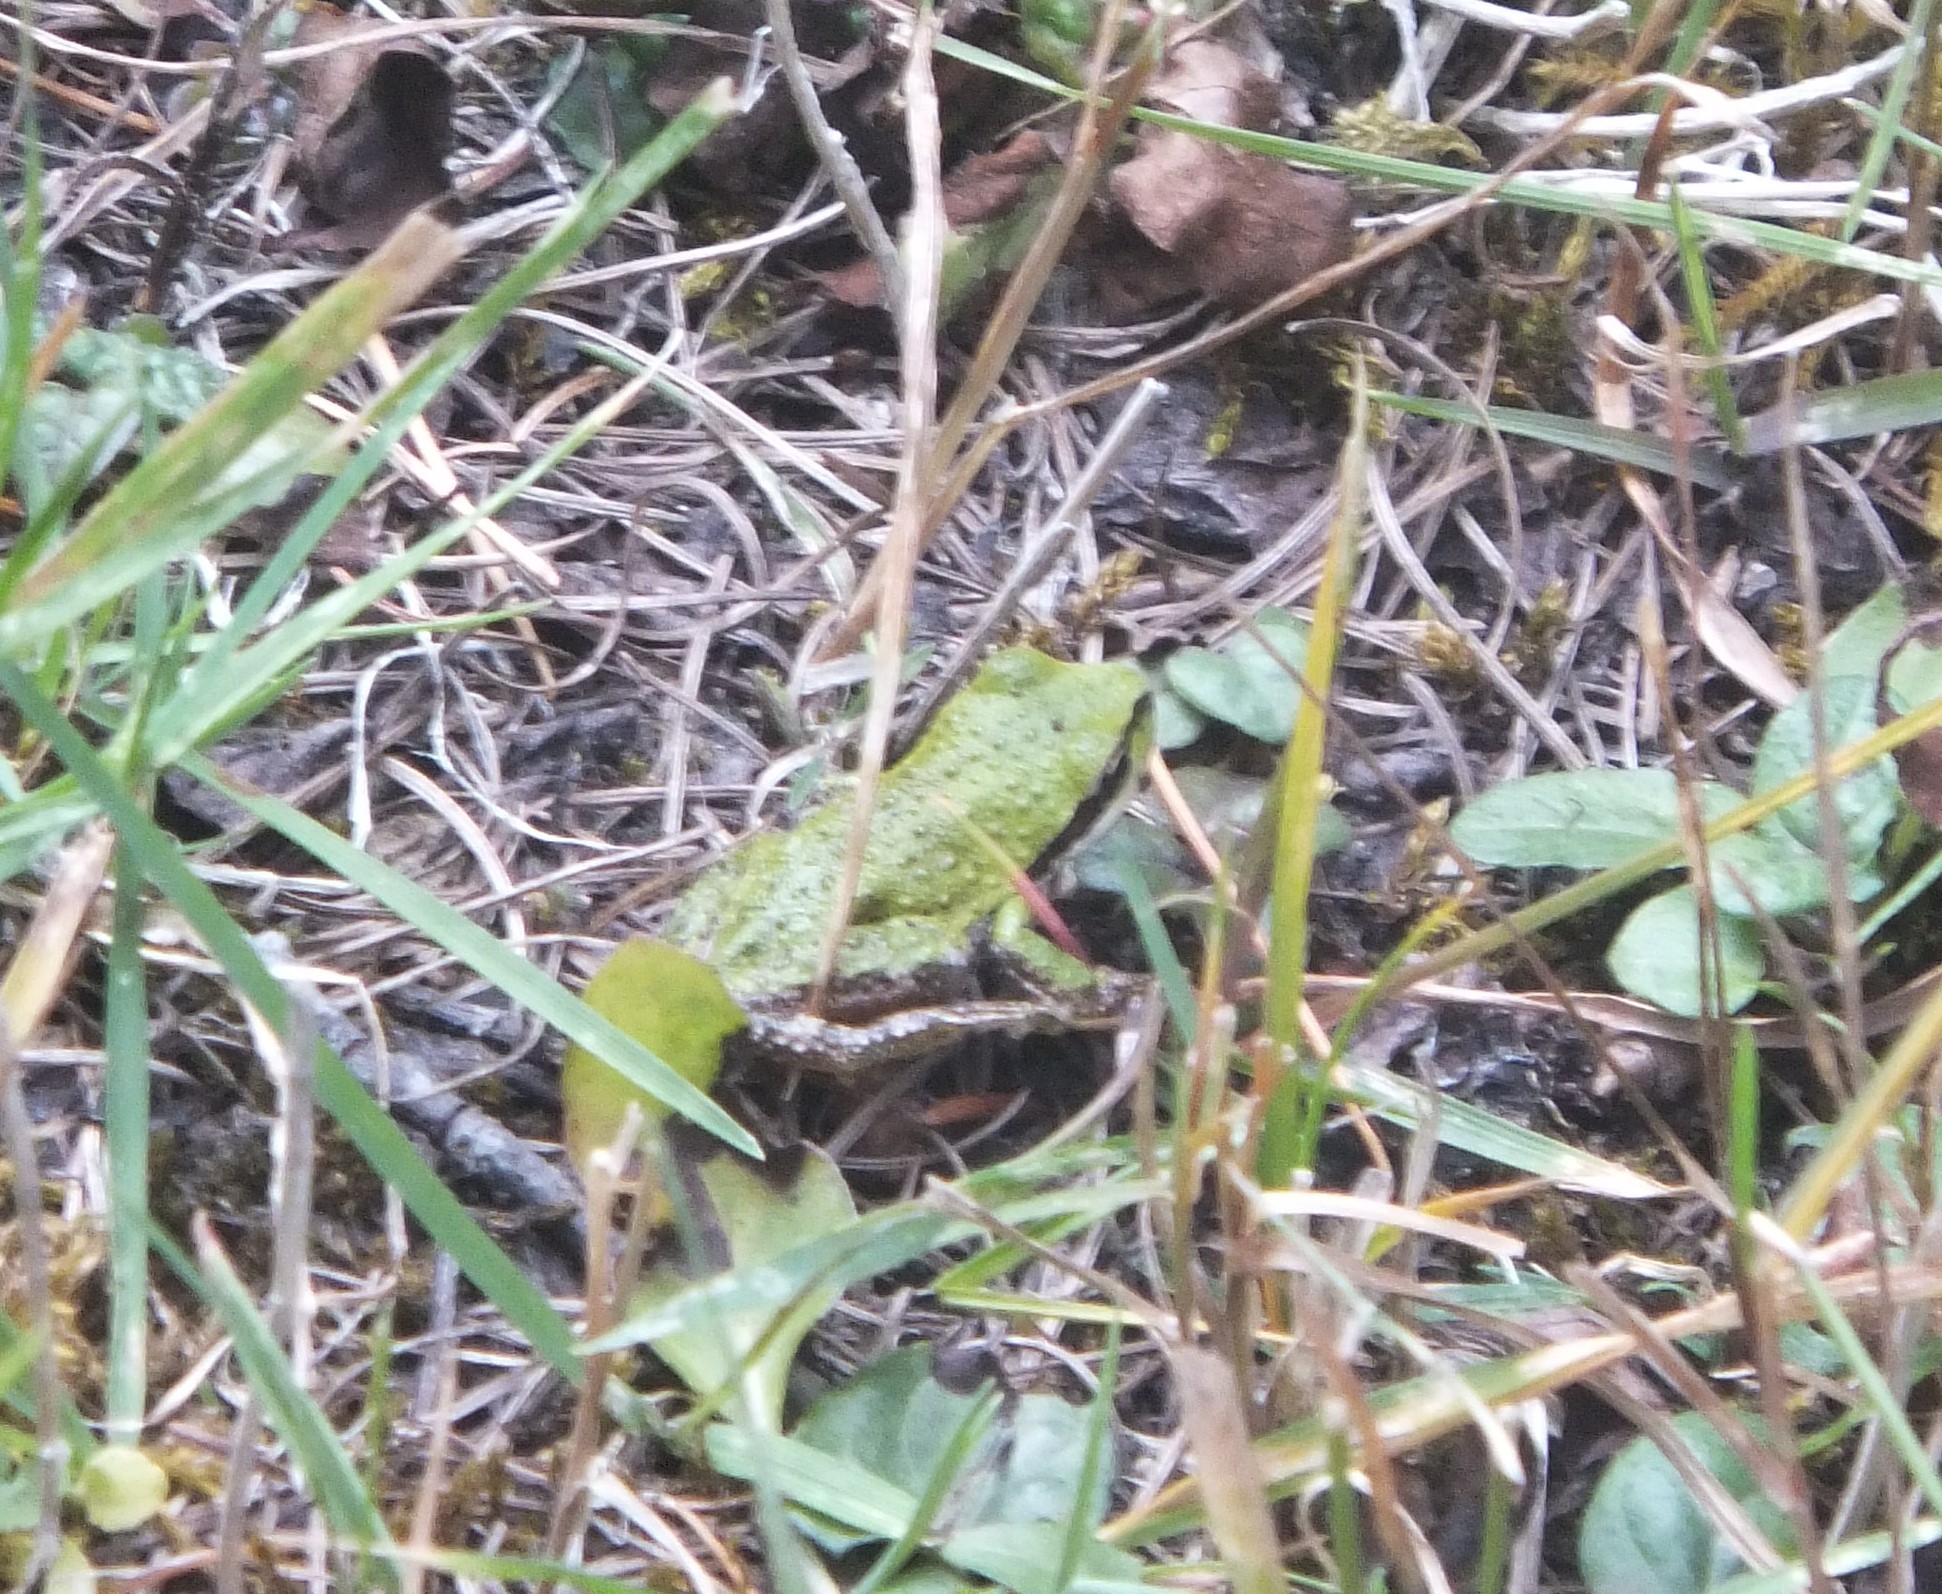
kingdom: Animalia
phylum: Chordata
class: Amphibia
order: Anura
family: Hylidae
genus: Pseudacris
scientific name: Pseudacris regilla
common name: Pacific chorus frog
